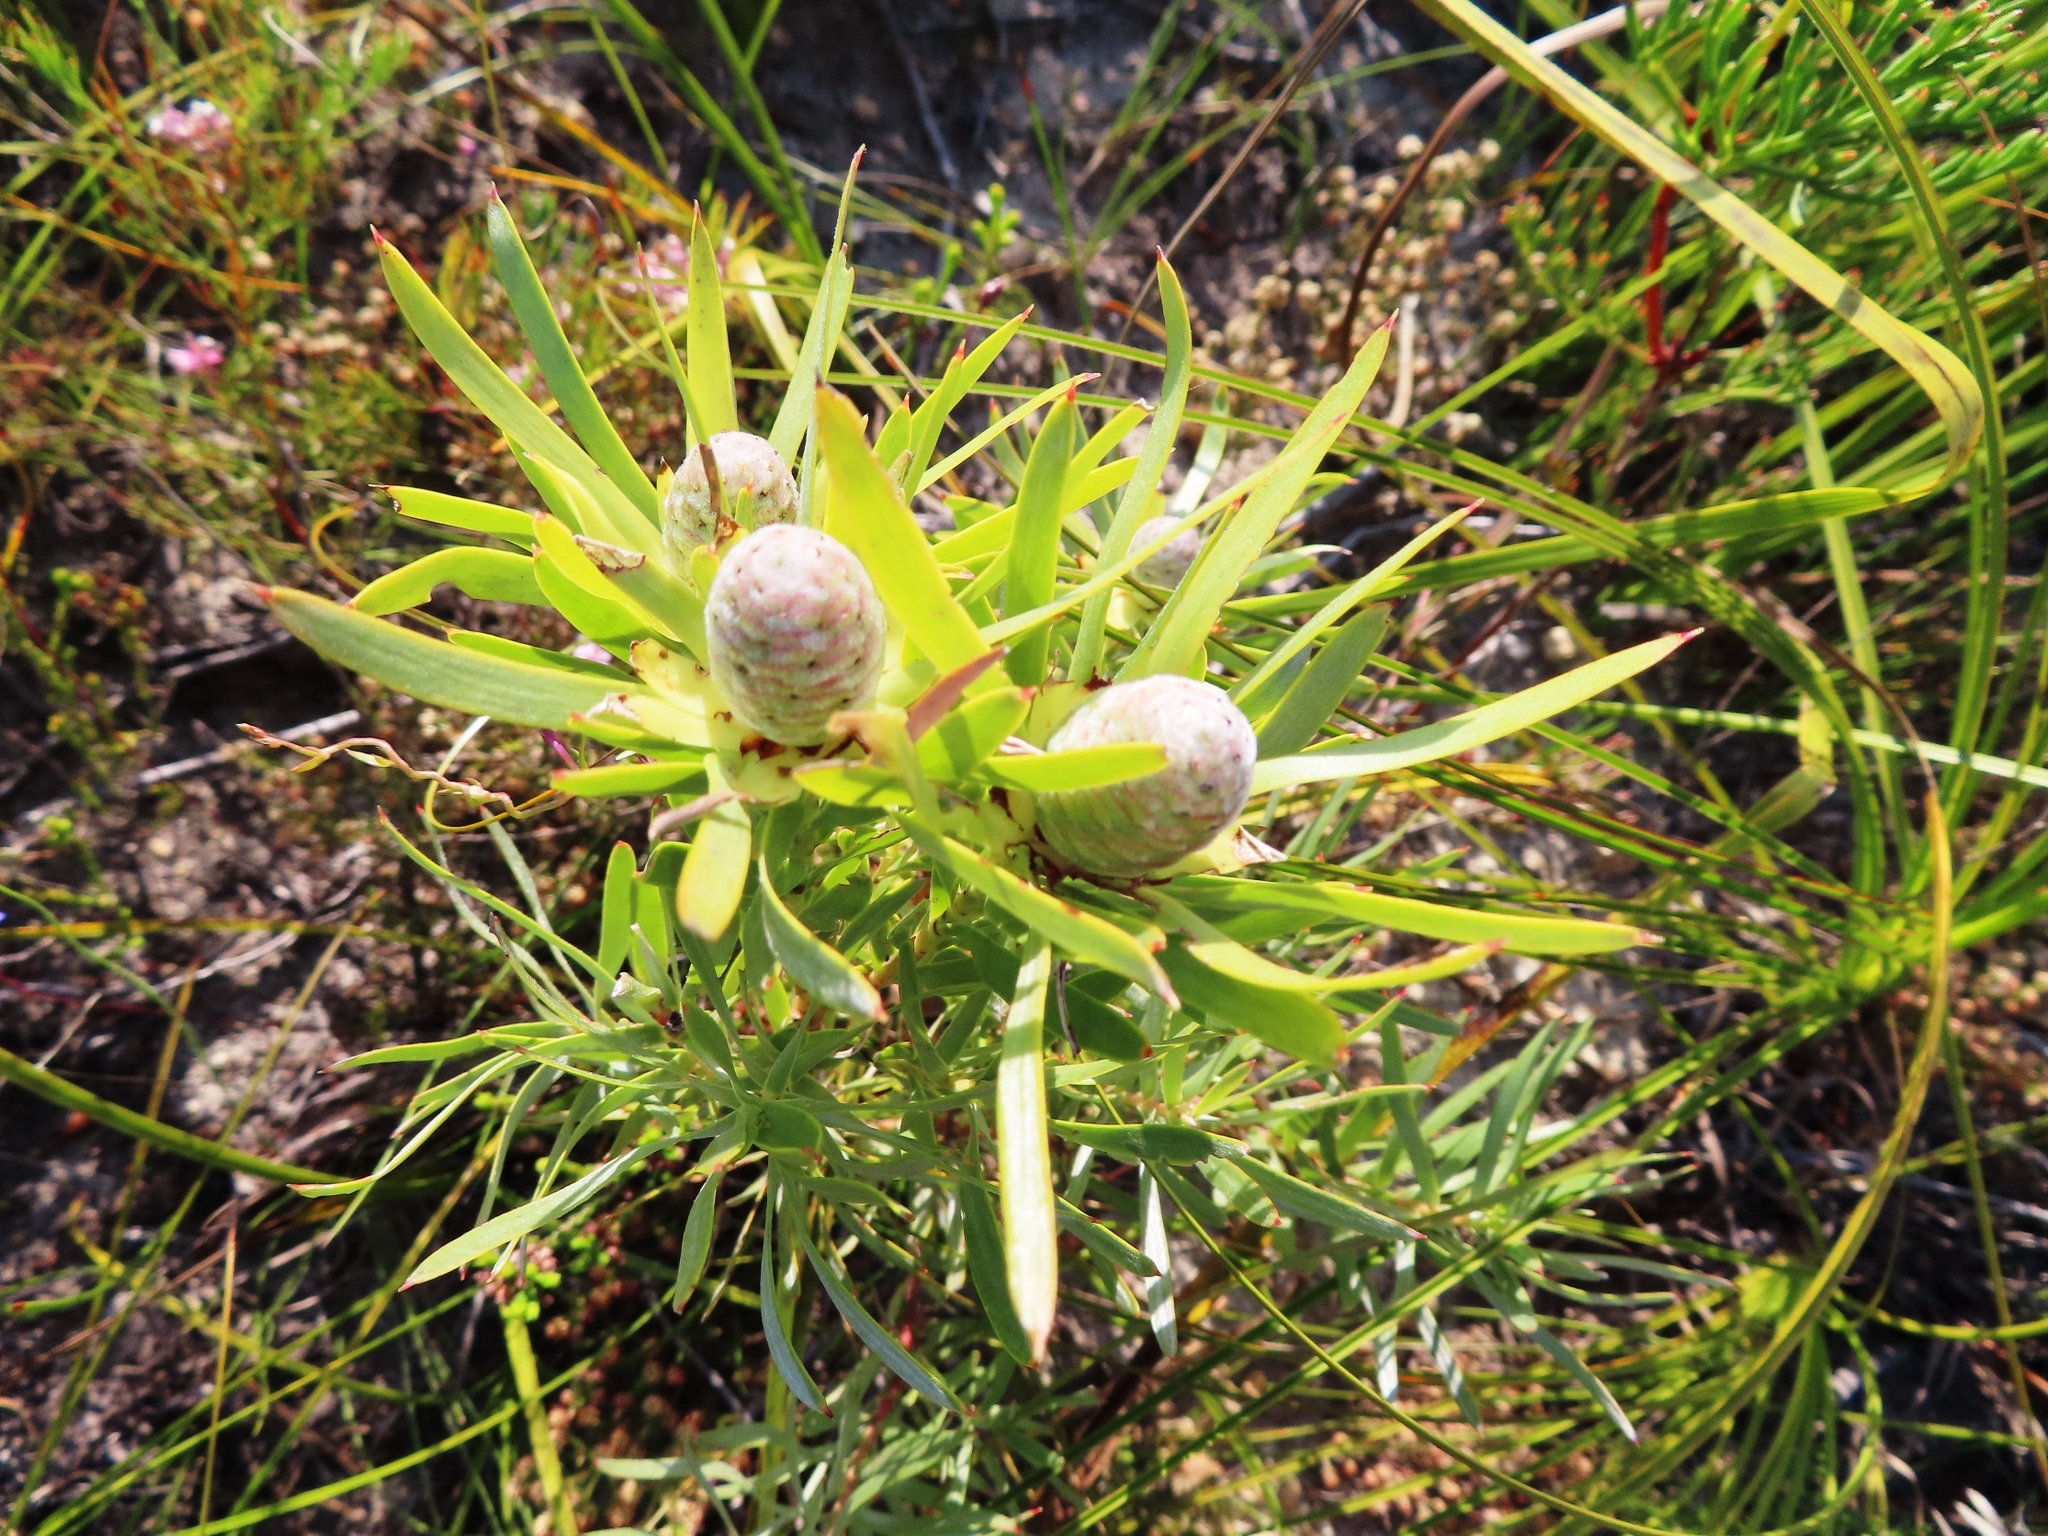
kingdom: Plantae
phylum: Tracheophyta
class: Magnoliopsida
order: Proteales
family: Proteaceae
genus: Leucadendron
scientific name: Leucadendron xanthoconus
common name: Sickle-leaf conebush
